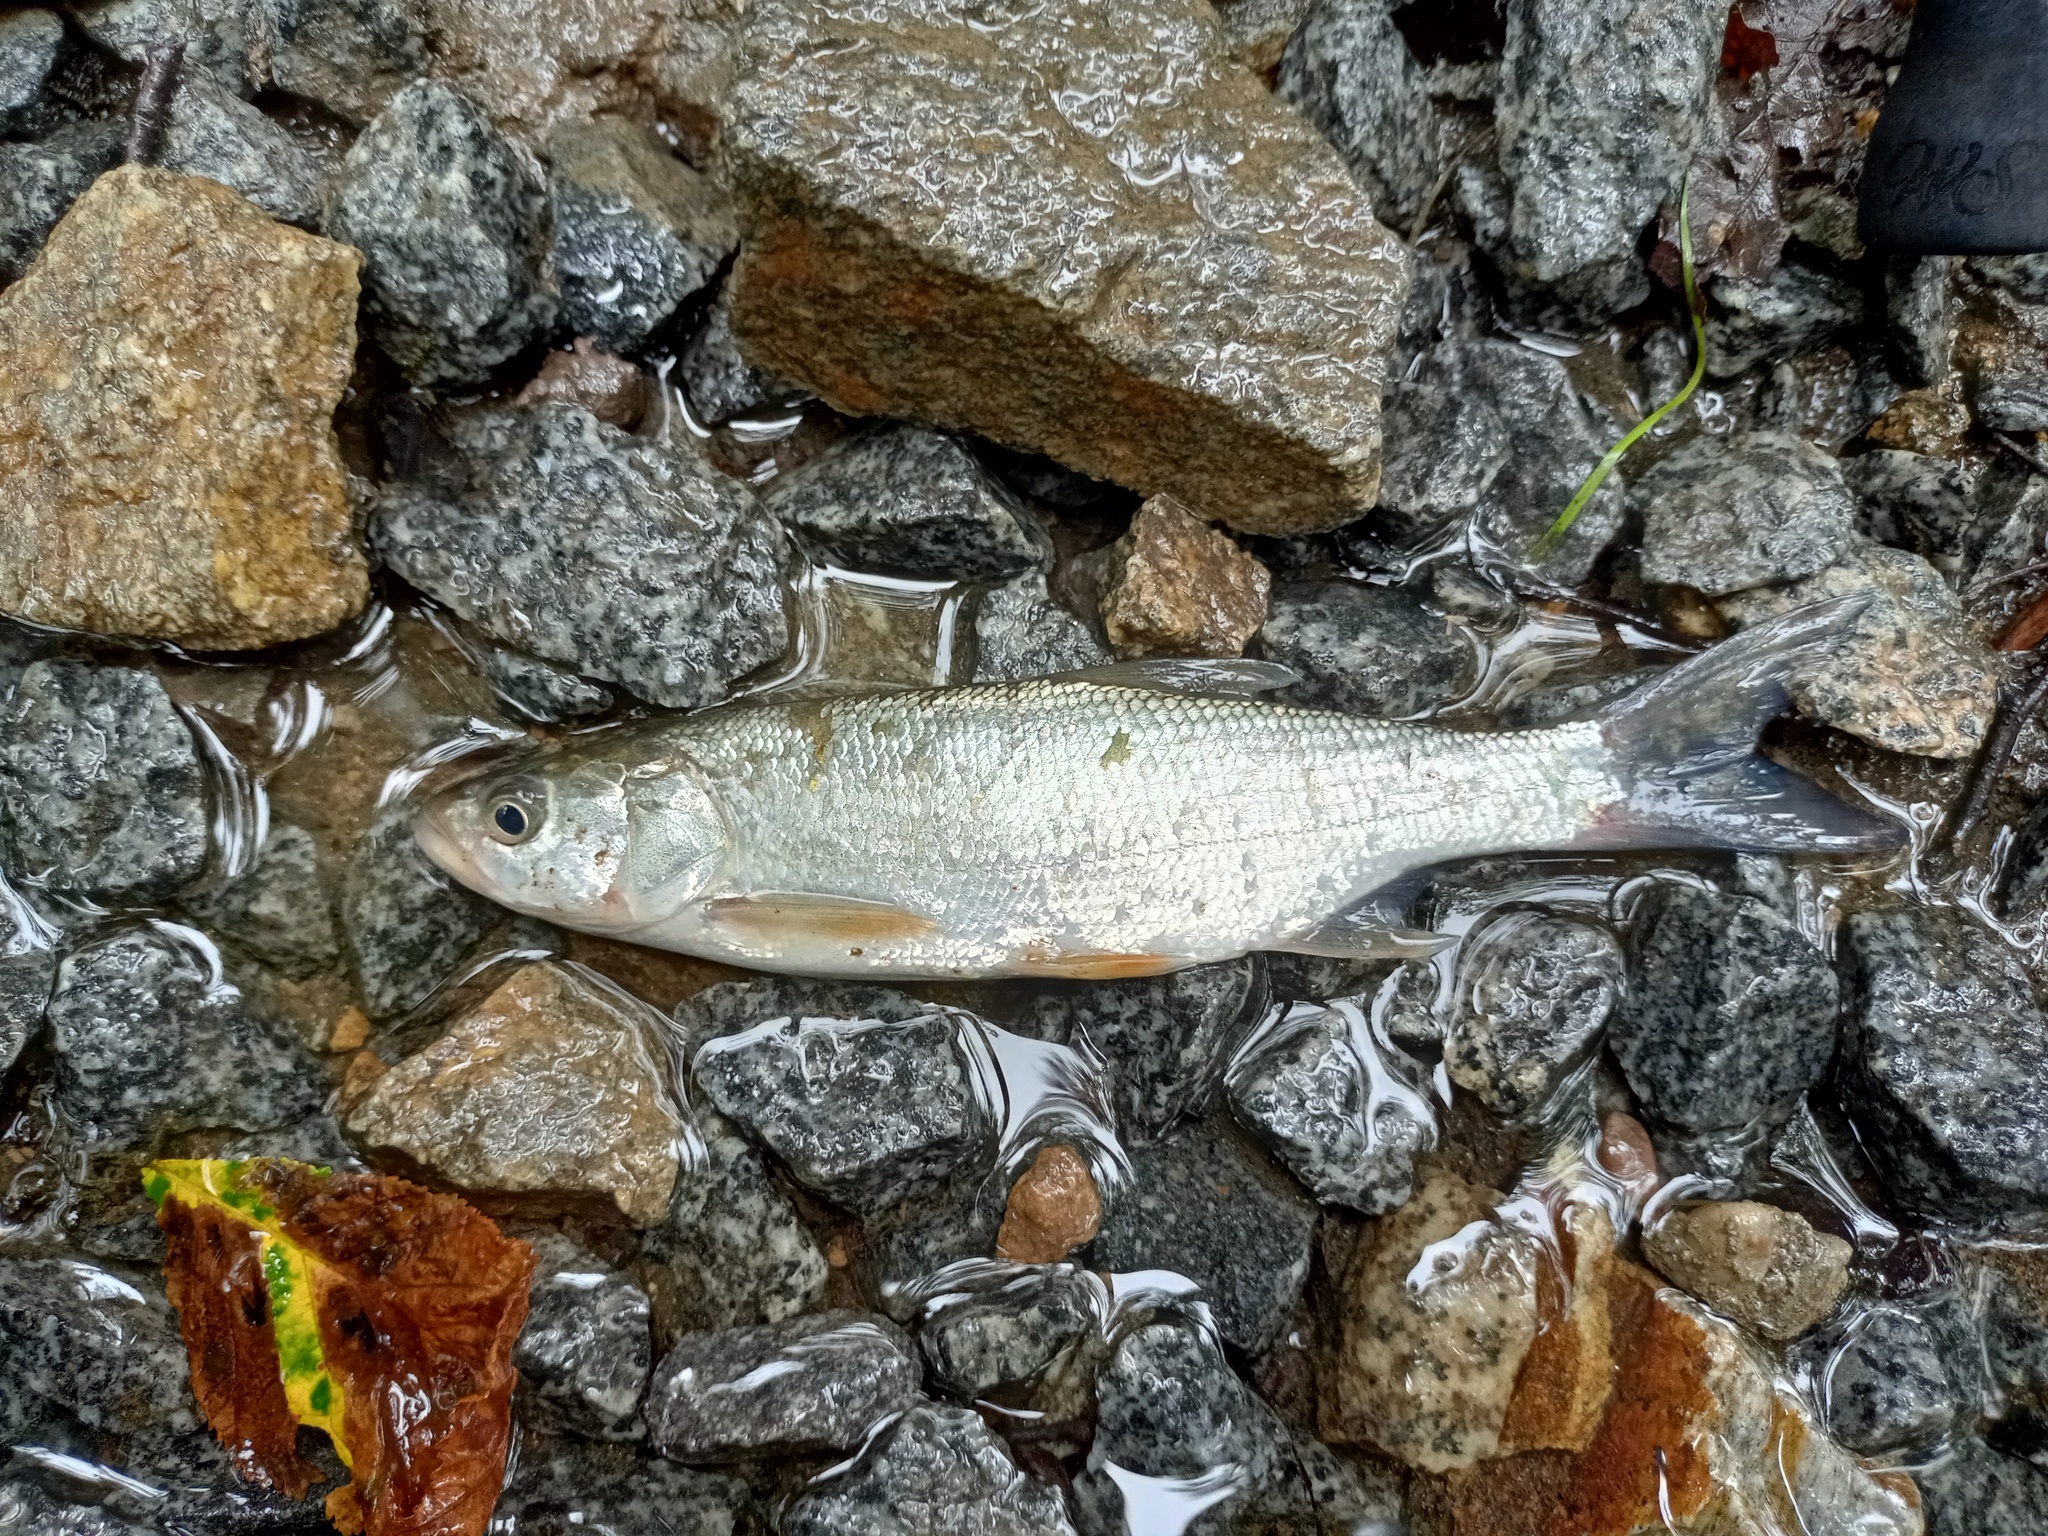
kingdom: Animalia
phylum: Chordata
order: Cypriniformes
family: Cyprinidae
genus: Leuciscus
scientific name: Leuciscus aspius
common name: Asp
